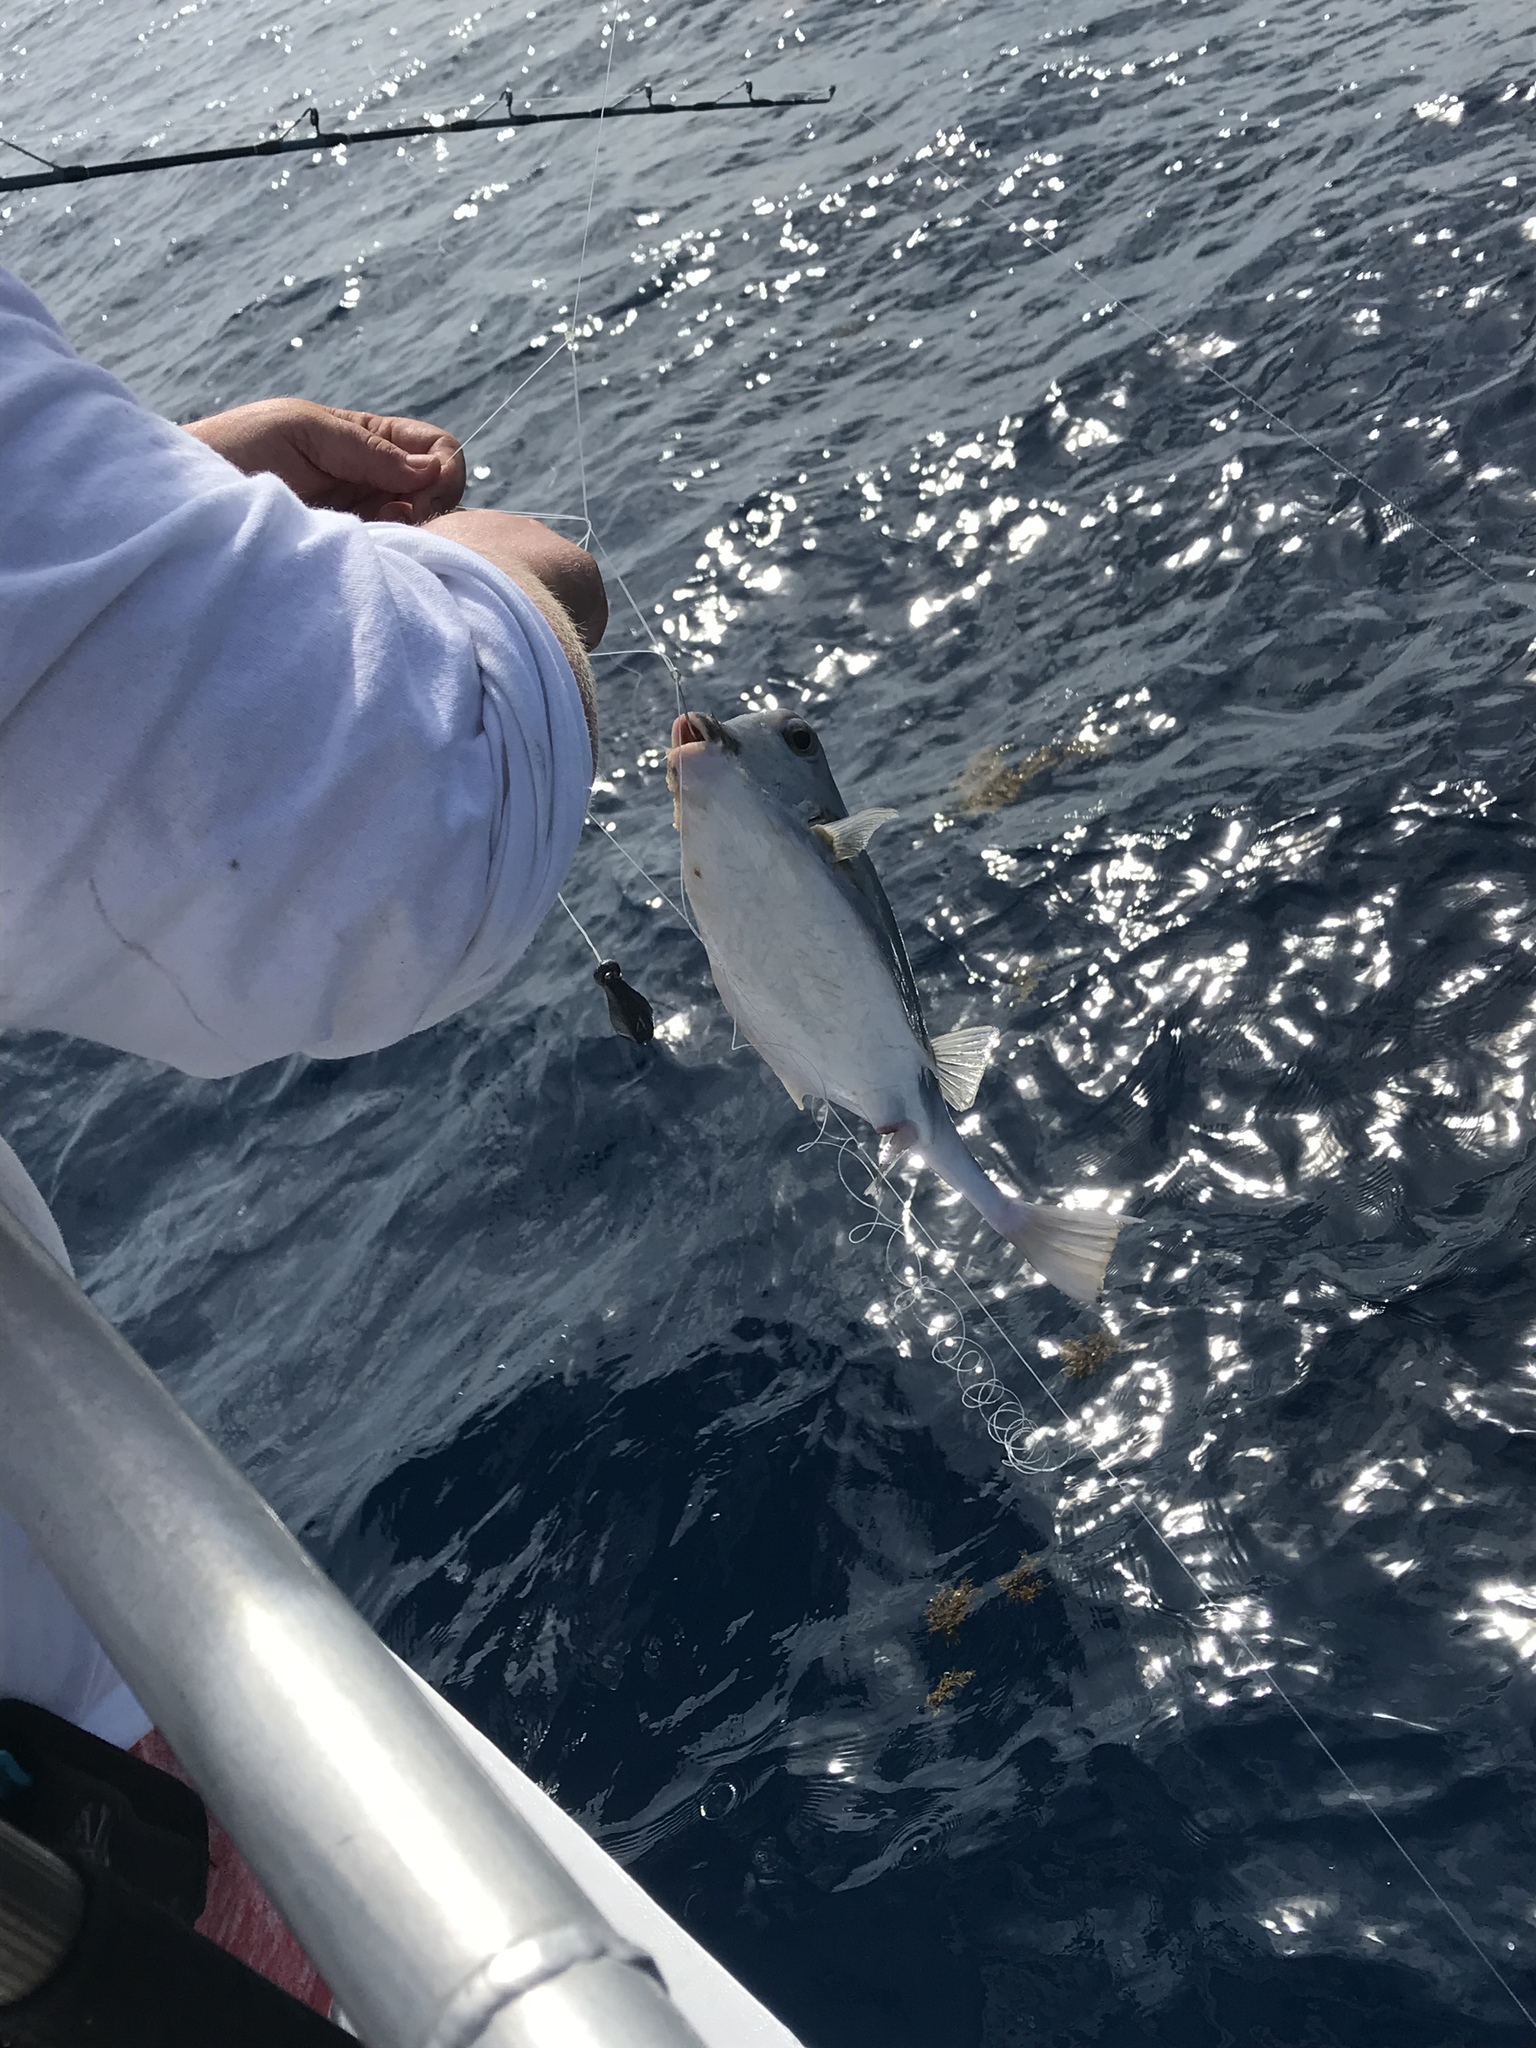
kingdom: Animalia
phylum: Chordata
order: Tetraodontiformes
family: Ostraciidae
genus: Lactophrys
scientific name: Lactophrys trigonus
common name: Buffalo trunkfish
